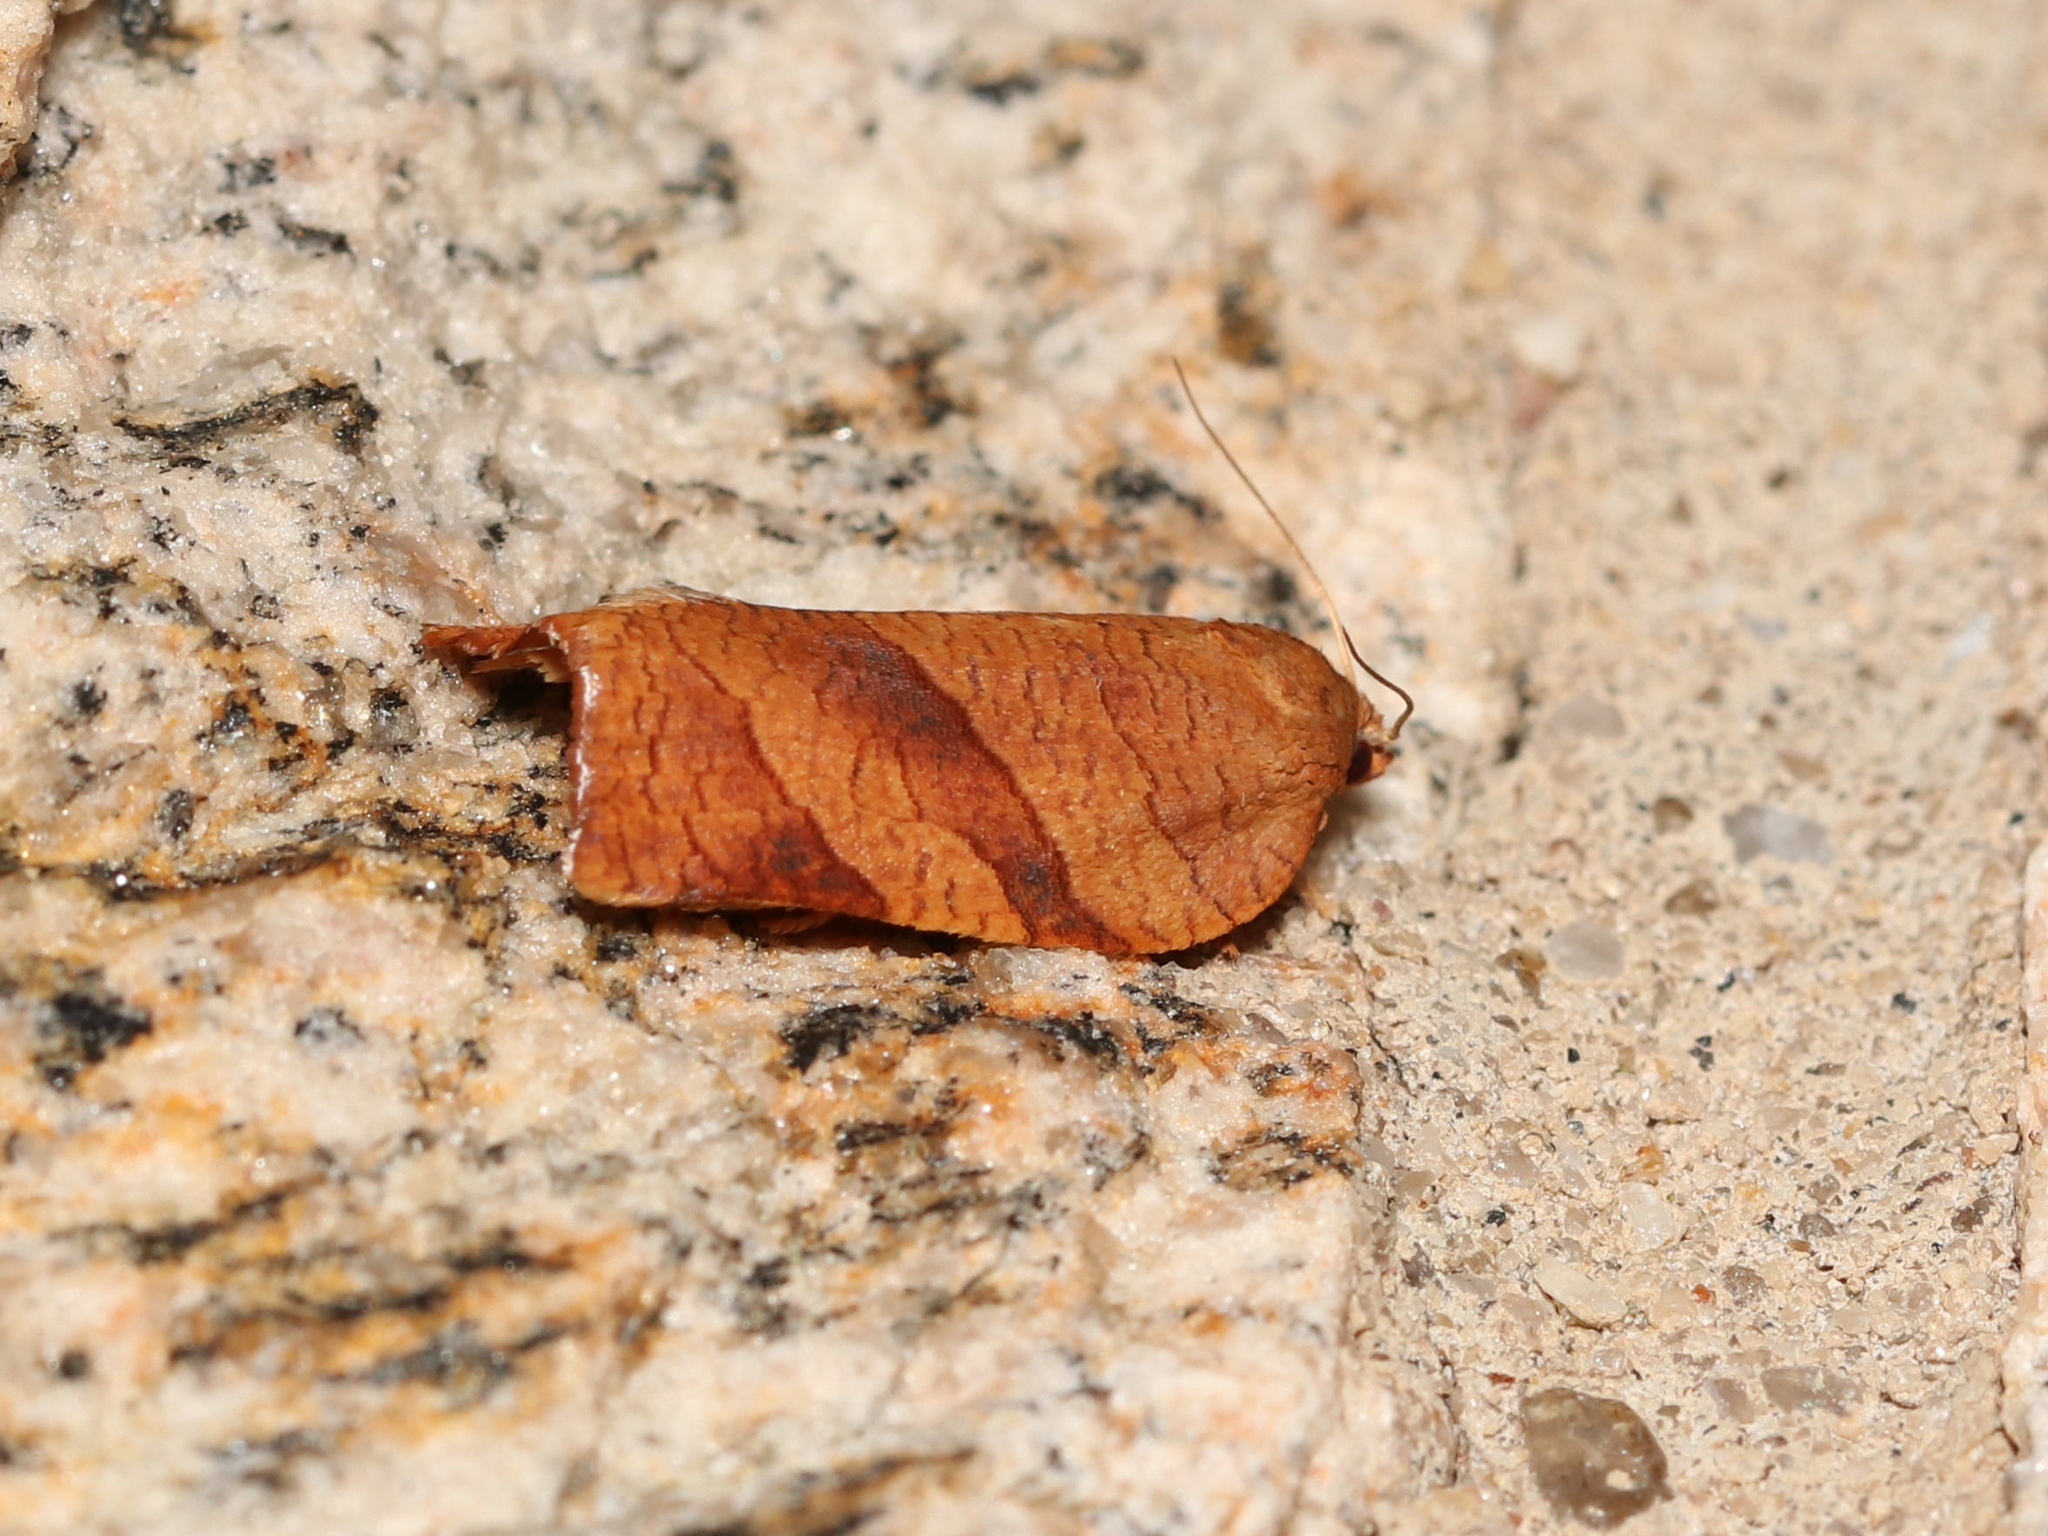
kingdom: Animalia
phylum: Arthropoda
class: Insecta
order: Lepidoptera
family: Tortricidae
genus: Choristoneura
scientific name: Choristoneura parallela
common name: Parallel-banded leafroller moth
